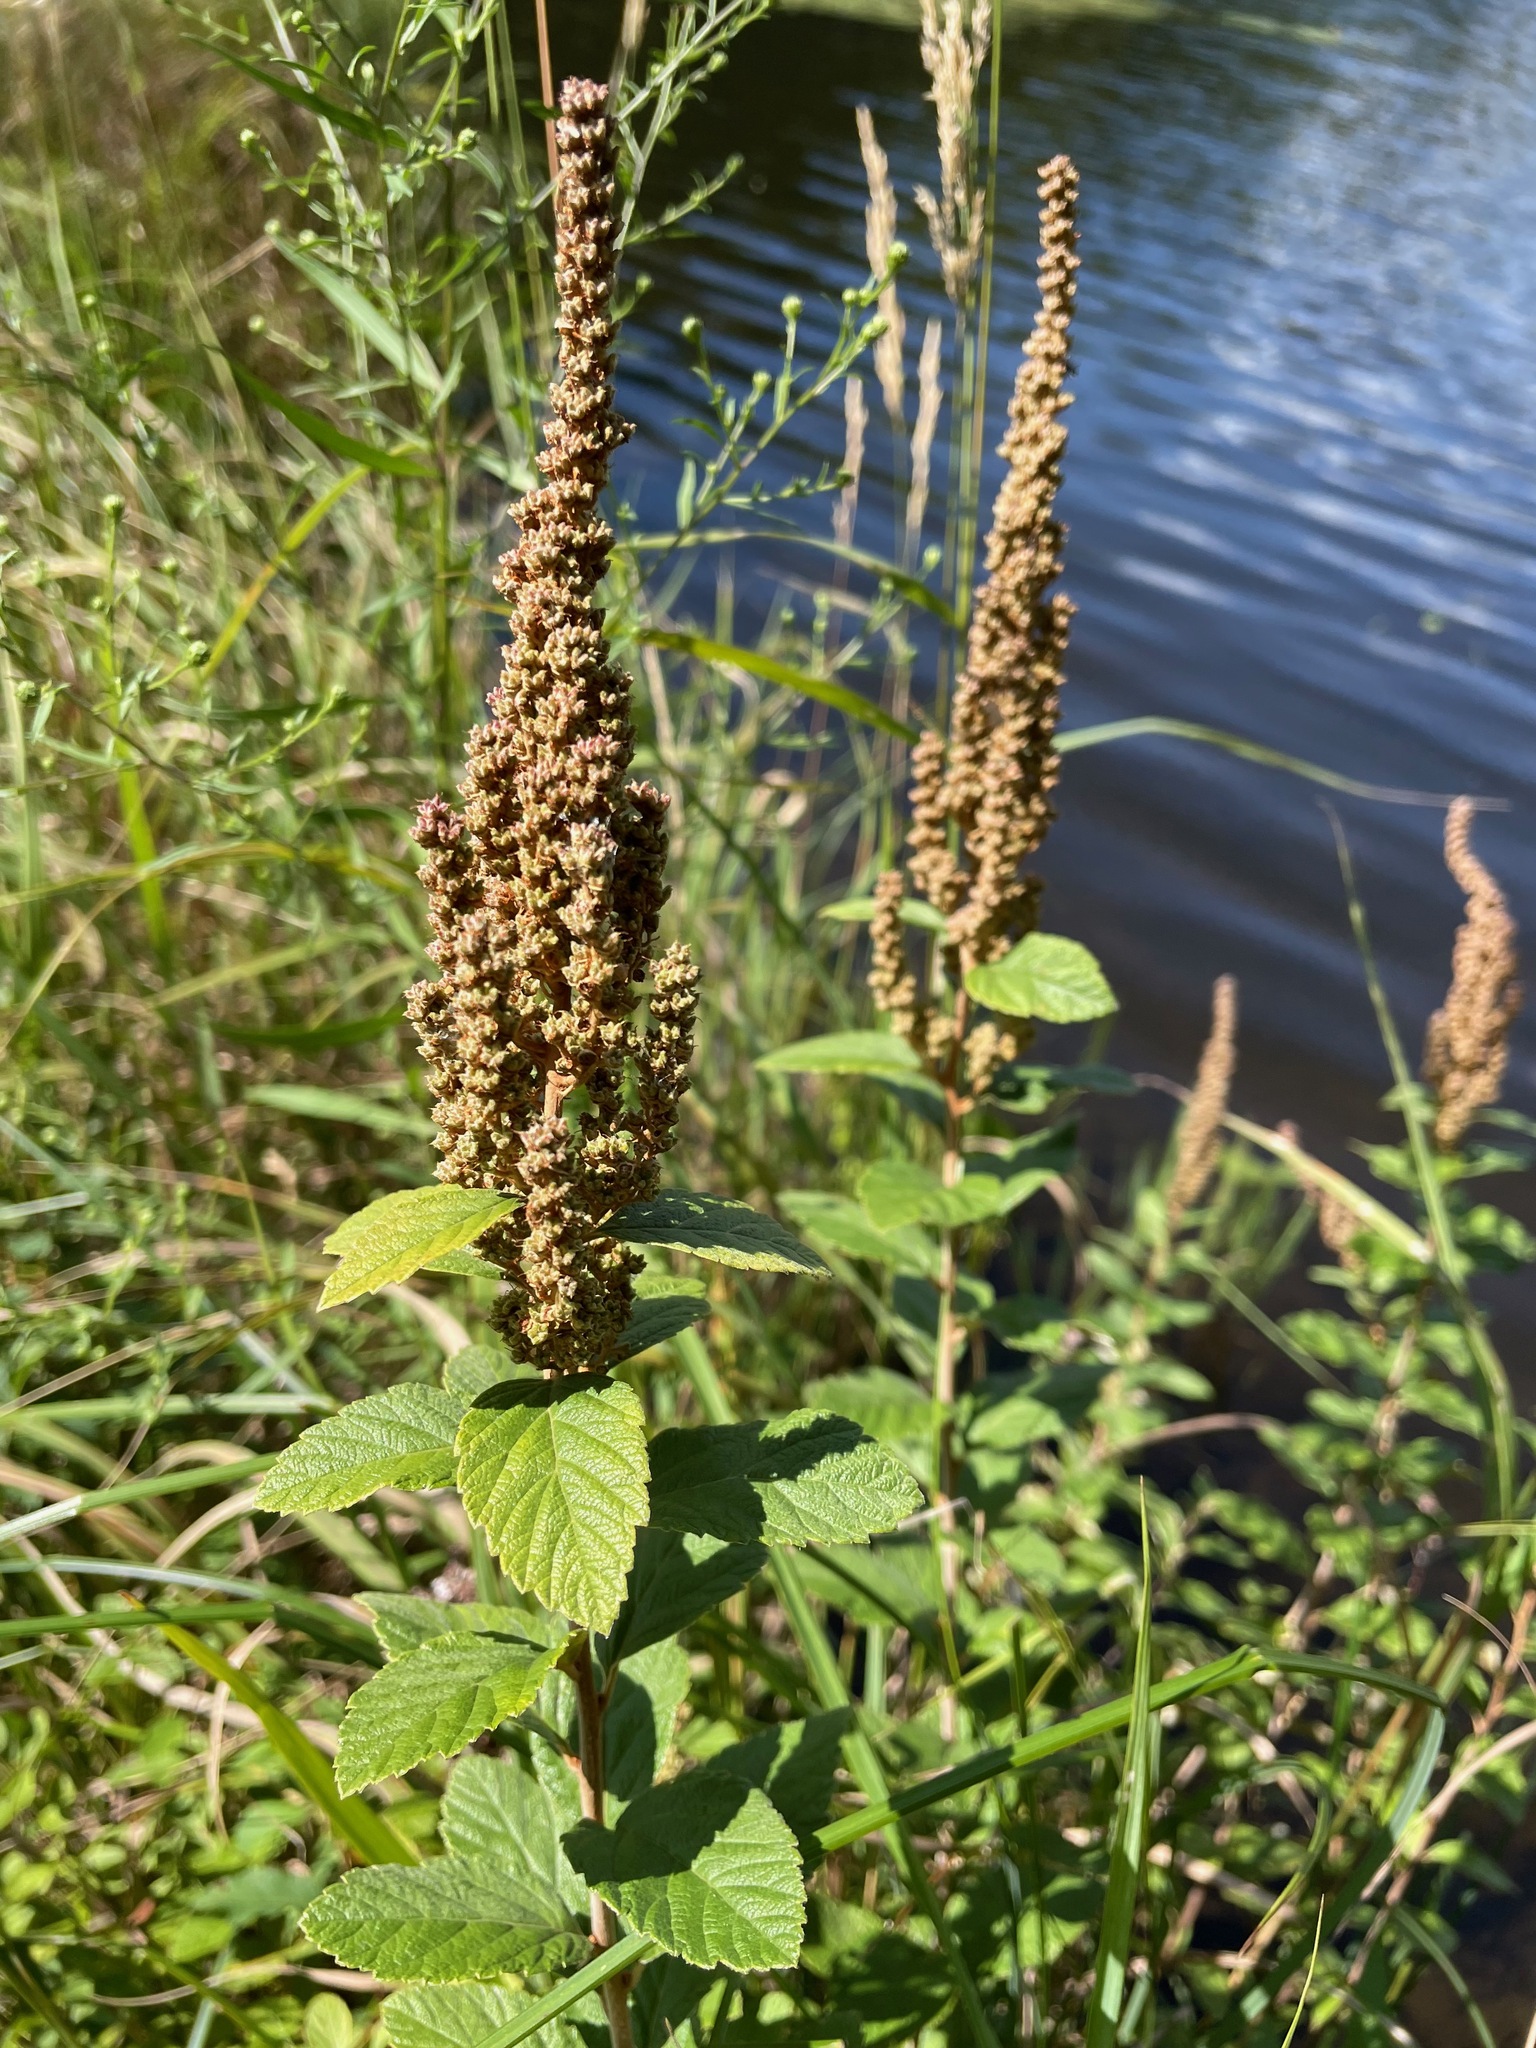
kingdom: Plantae
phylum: Tracheophyta
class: Magnoliopsida
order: Rosales
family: Rosaceae
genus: Spiraea
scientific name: Spiraea tomentosa
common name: Hardhack
